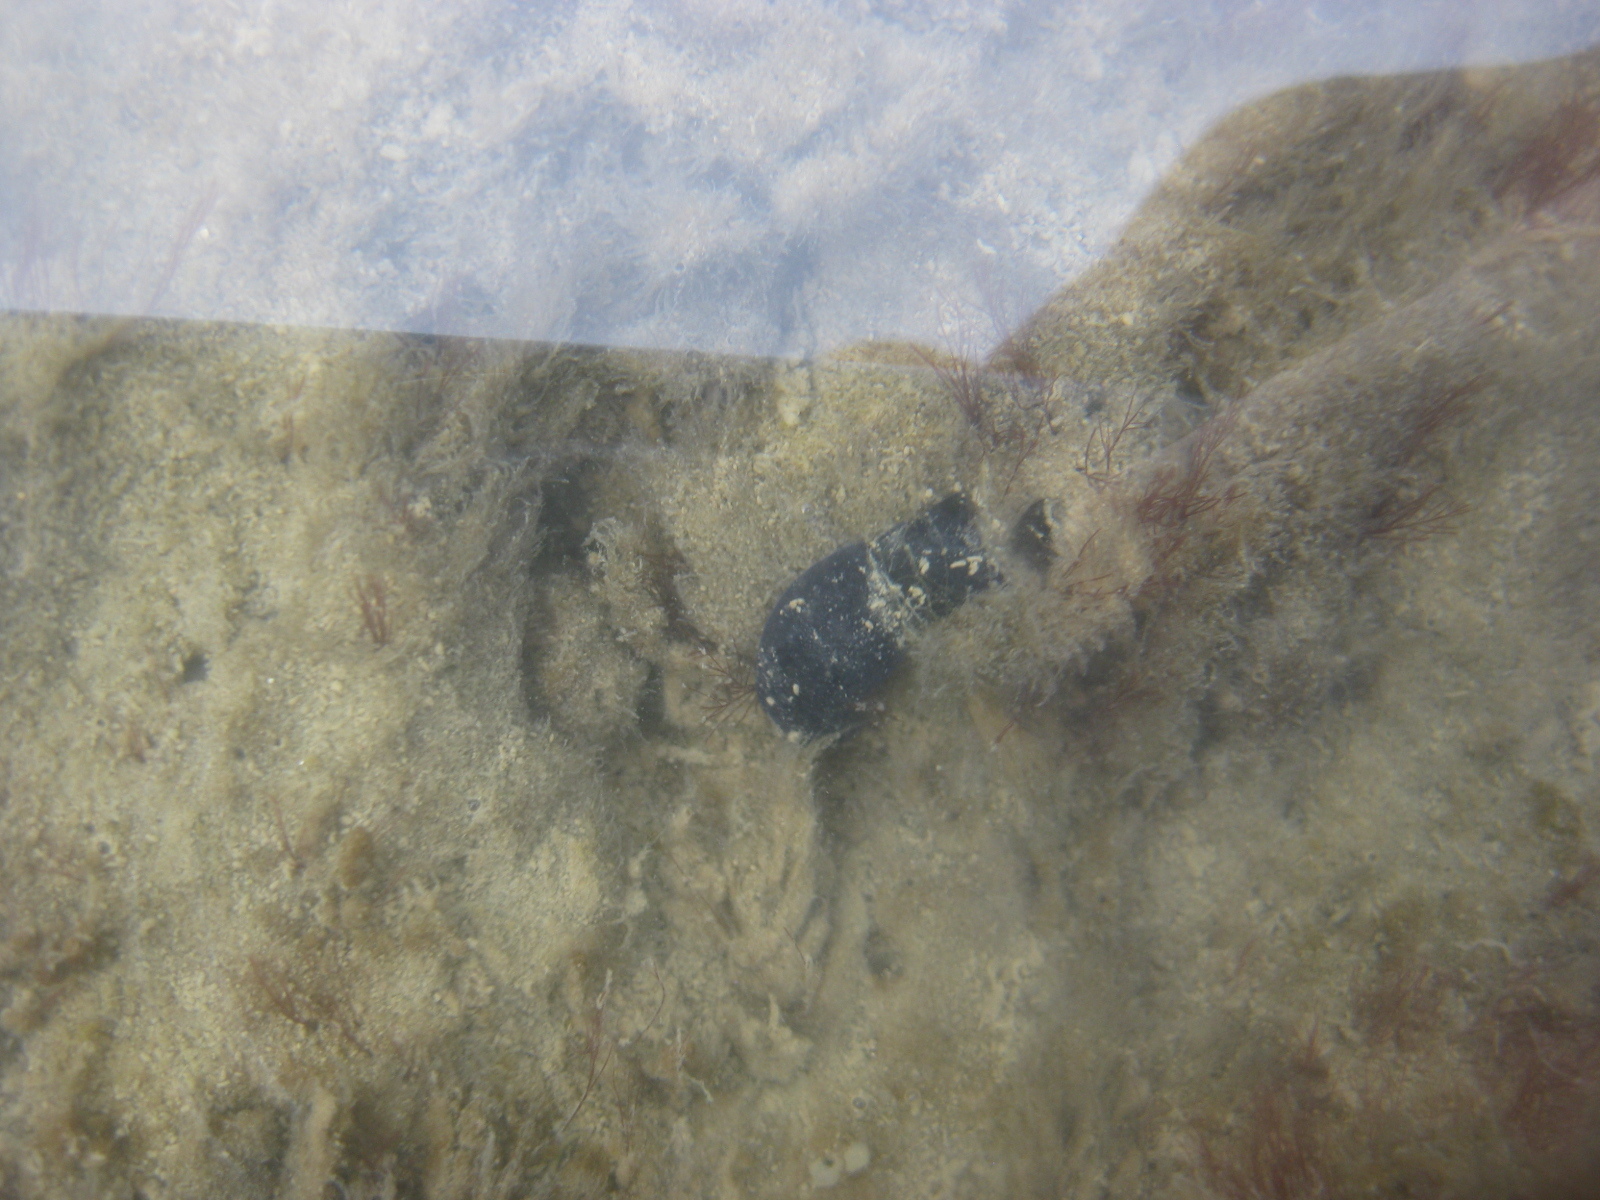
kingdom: Animalia
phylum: Mollusca
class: Gastropoda
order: Cephalaspidea
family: Aglajidae
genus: Melanochlamys
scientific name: Melanochlamys cylindrica
